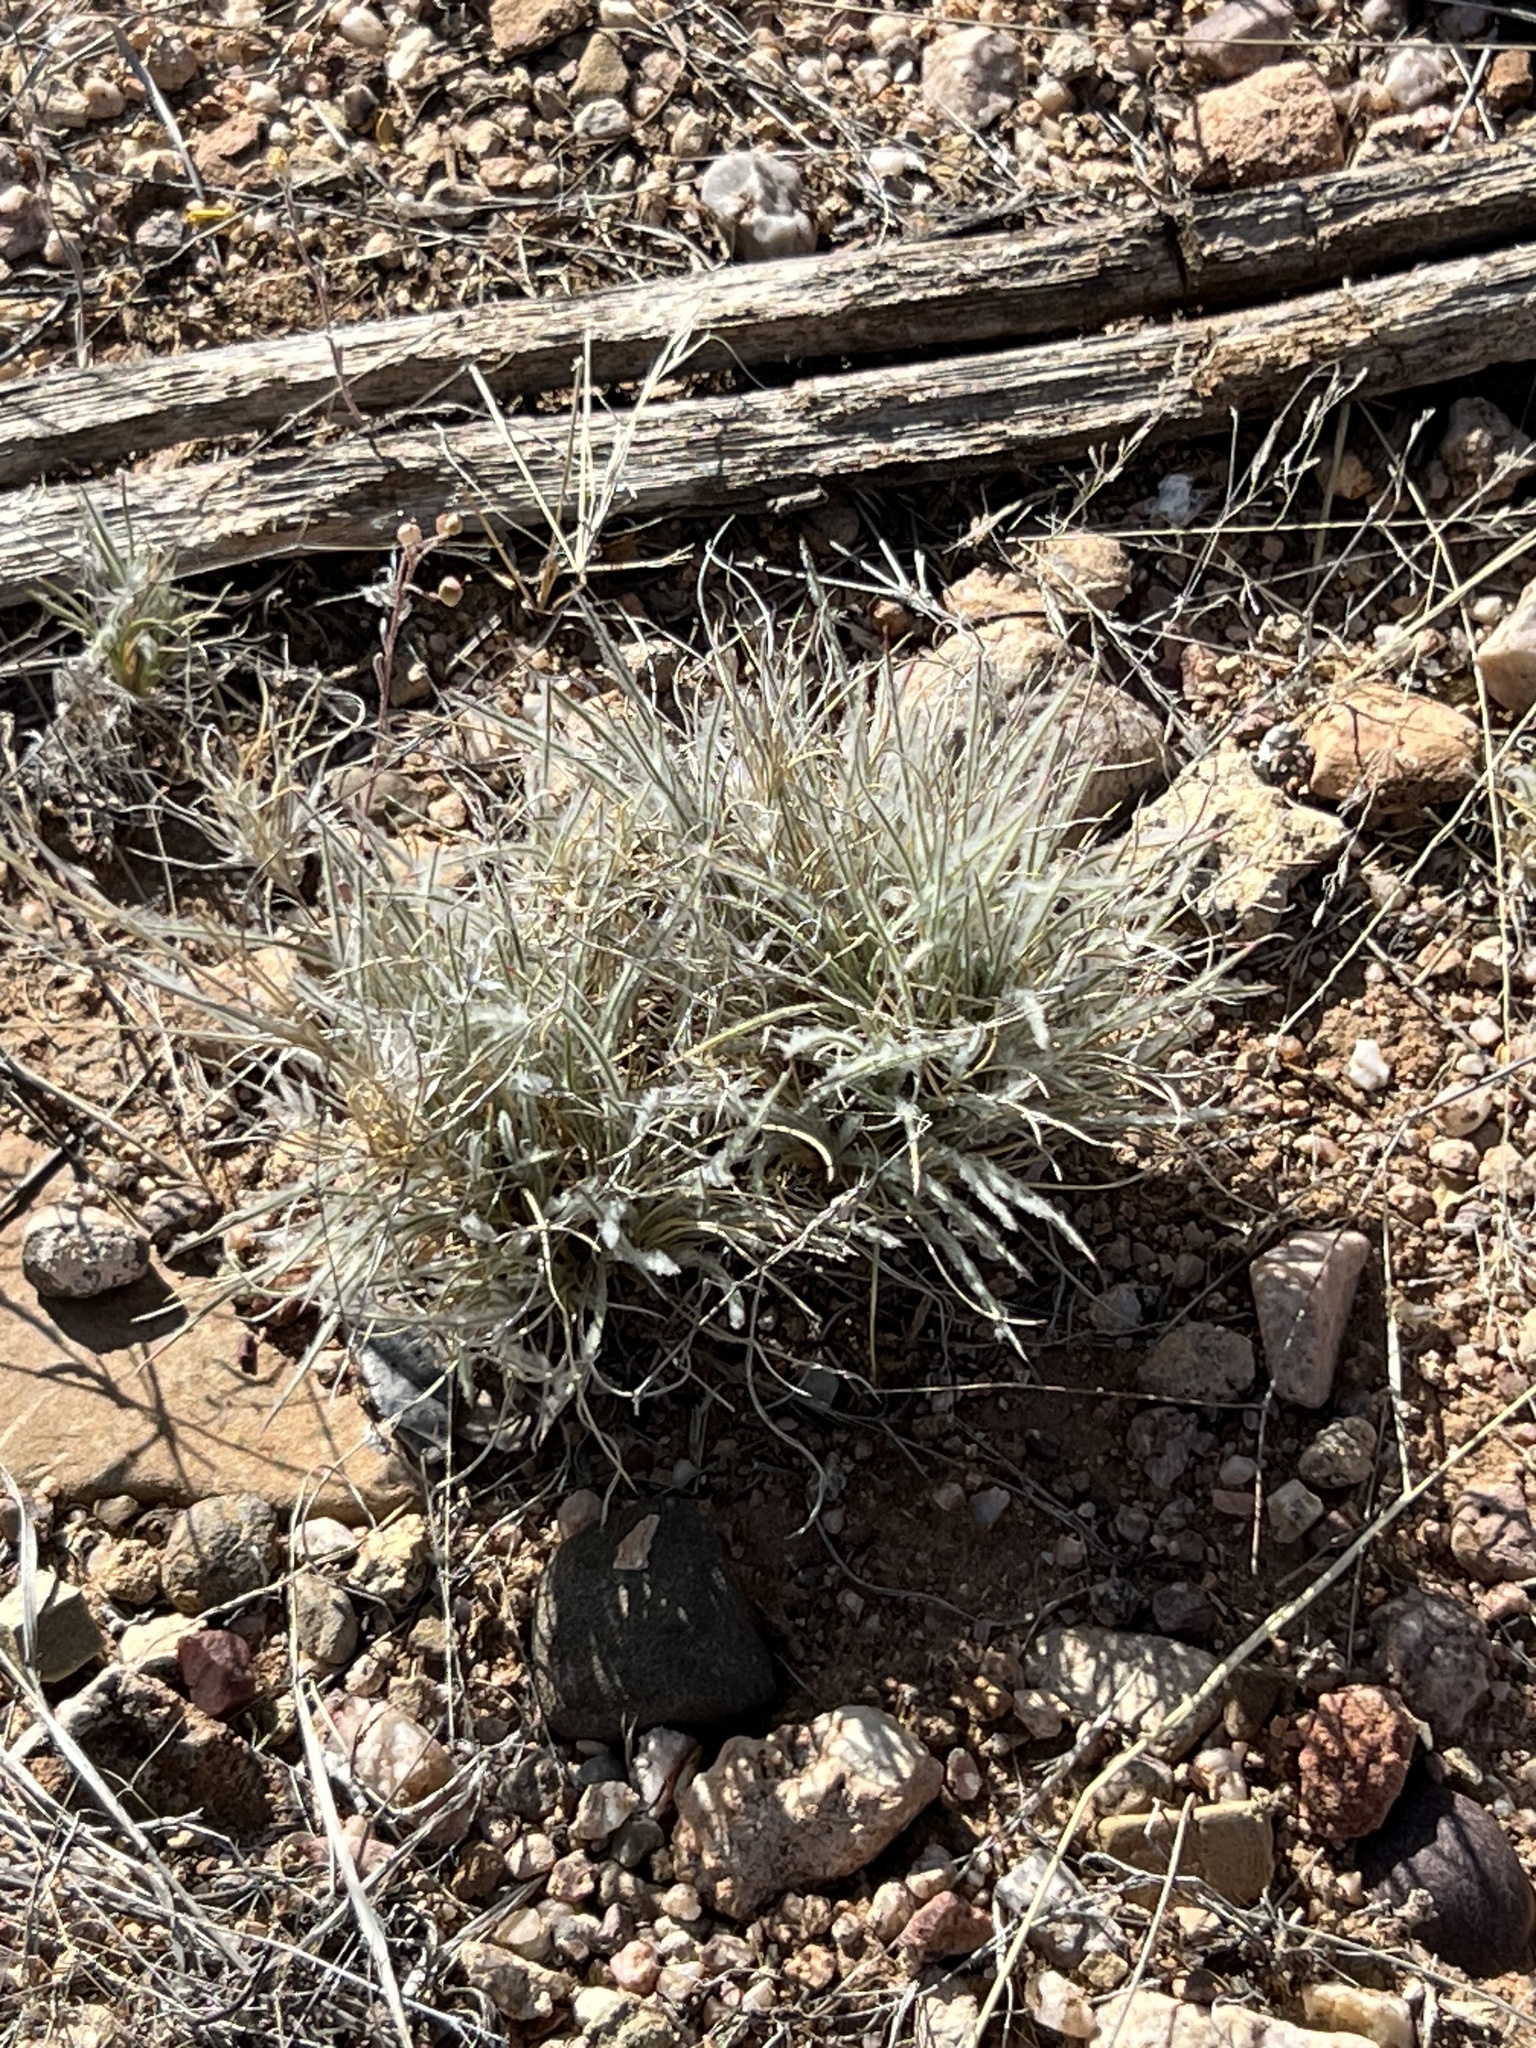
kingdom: Plantae
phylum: Tracheophyta
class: Liliopsida
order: Poales
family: Poaceae
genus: Dasyochloa
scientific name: Dasyochloa pulchella
